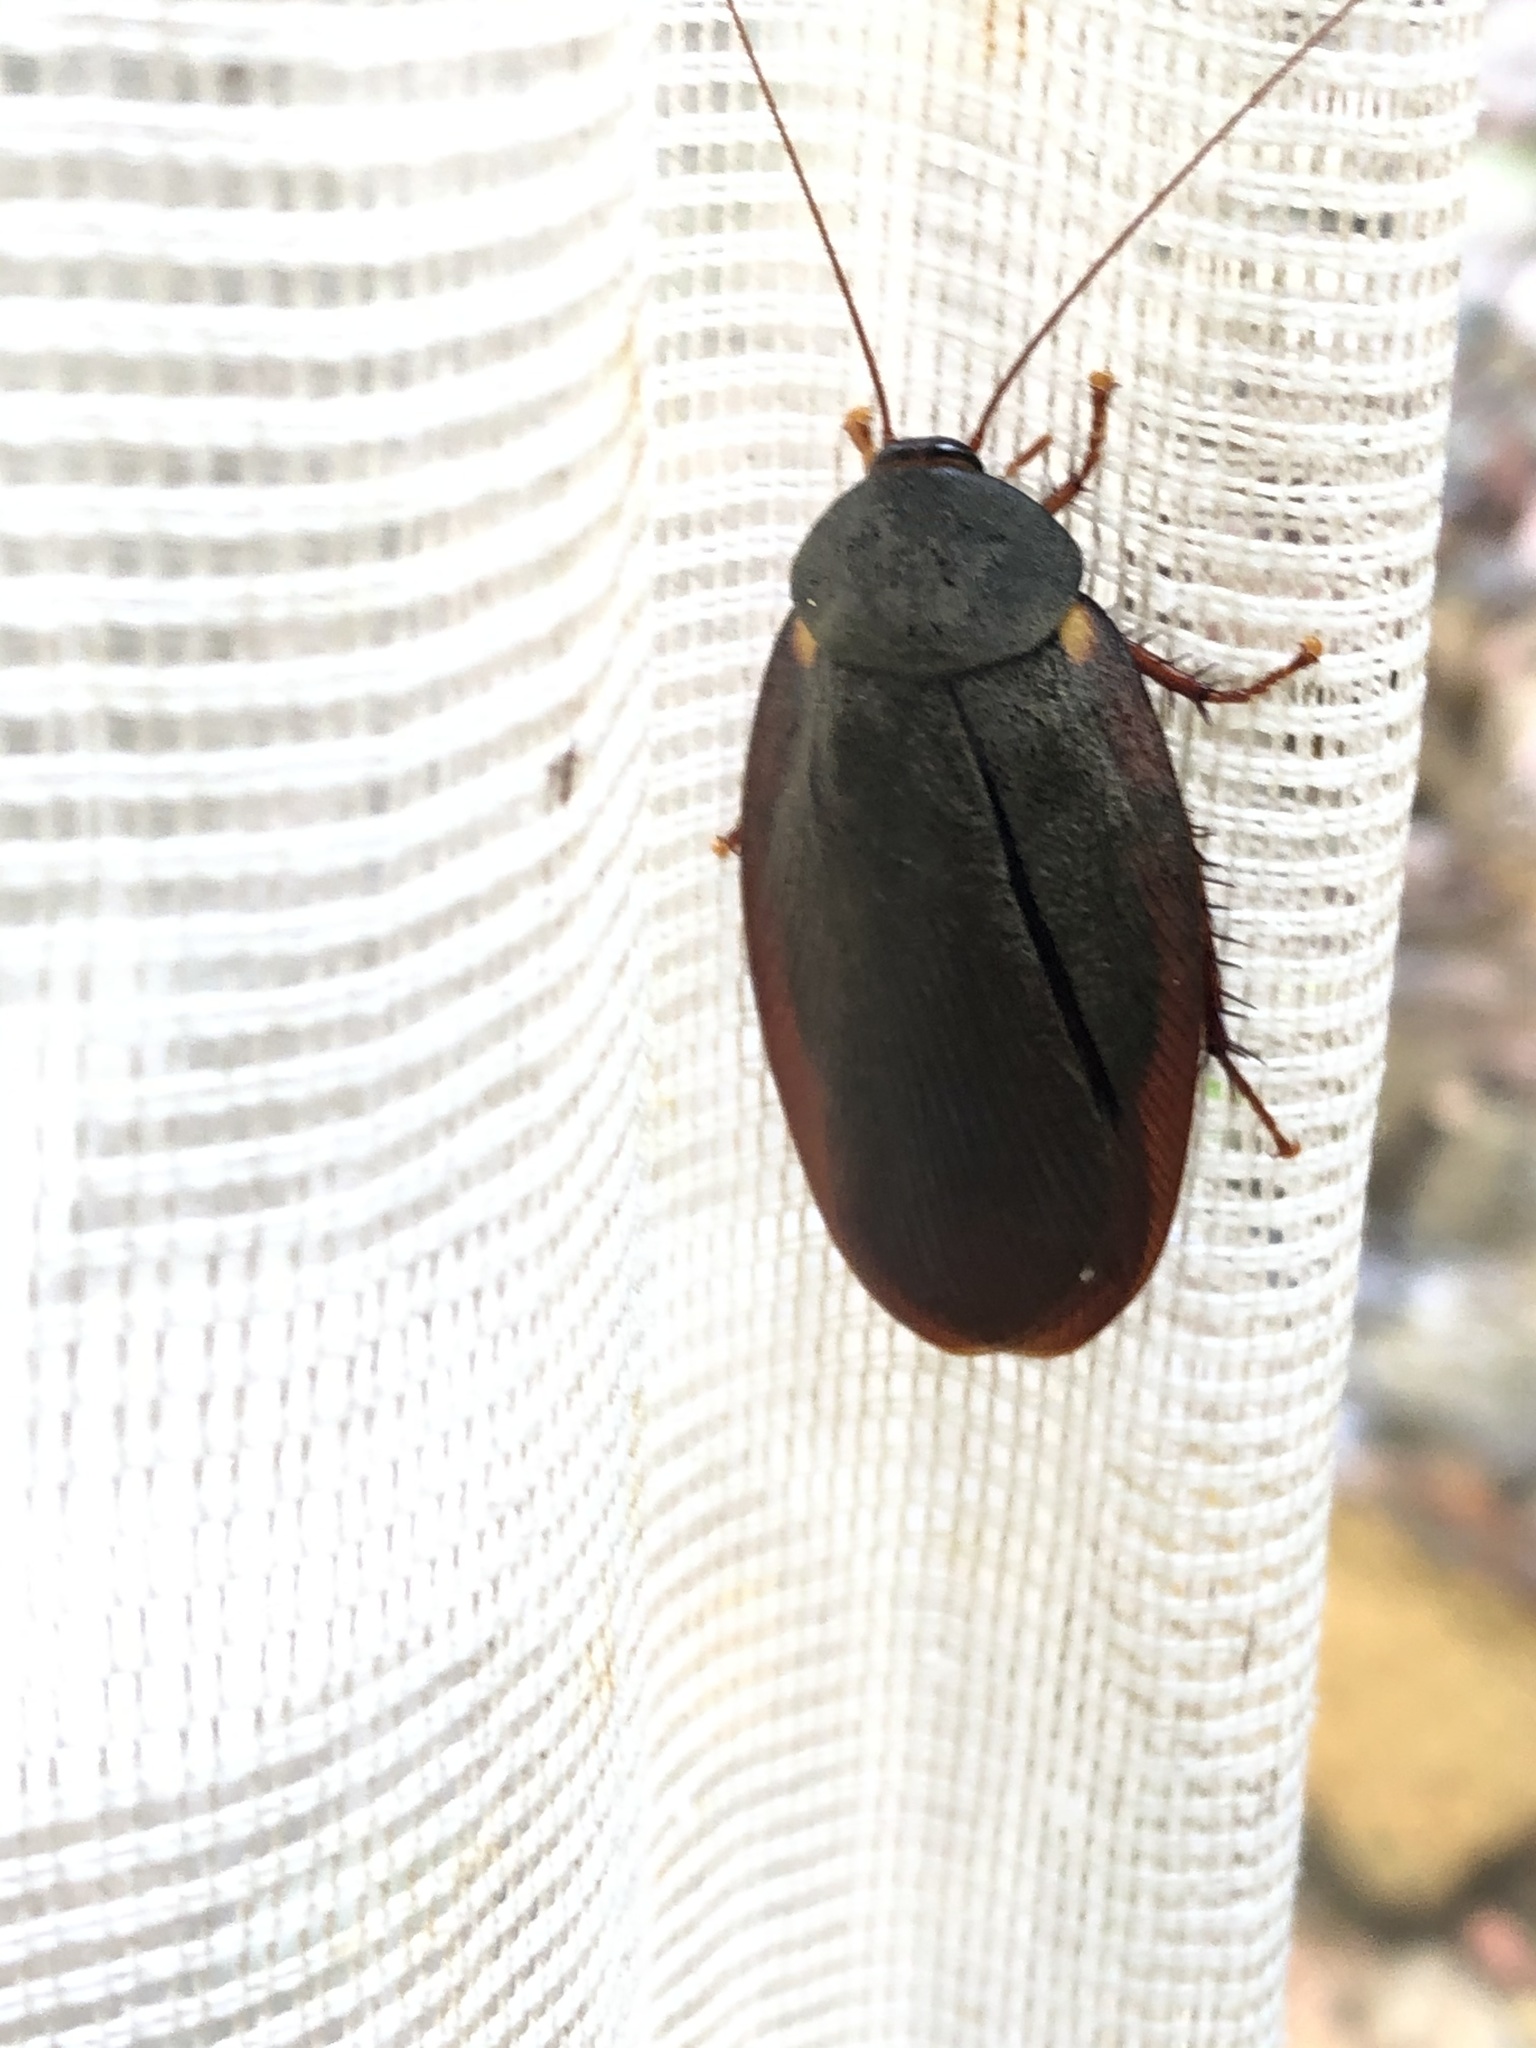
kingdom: Animalia
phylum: Arthropoda
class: Insecta
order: Blattodea
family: Ectobiidae
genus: Nyctibora
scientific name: Nyctibora humeralis
